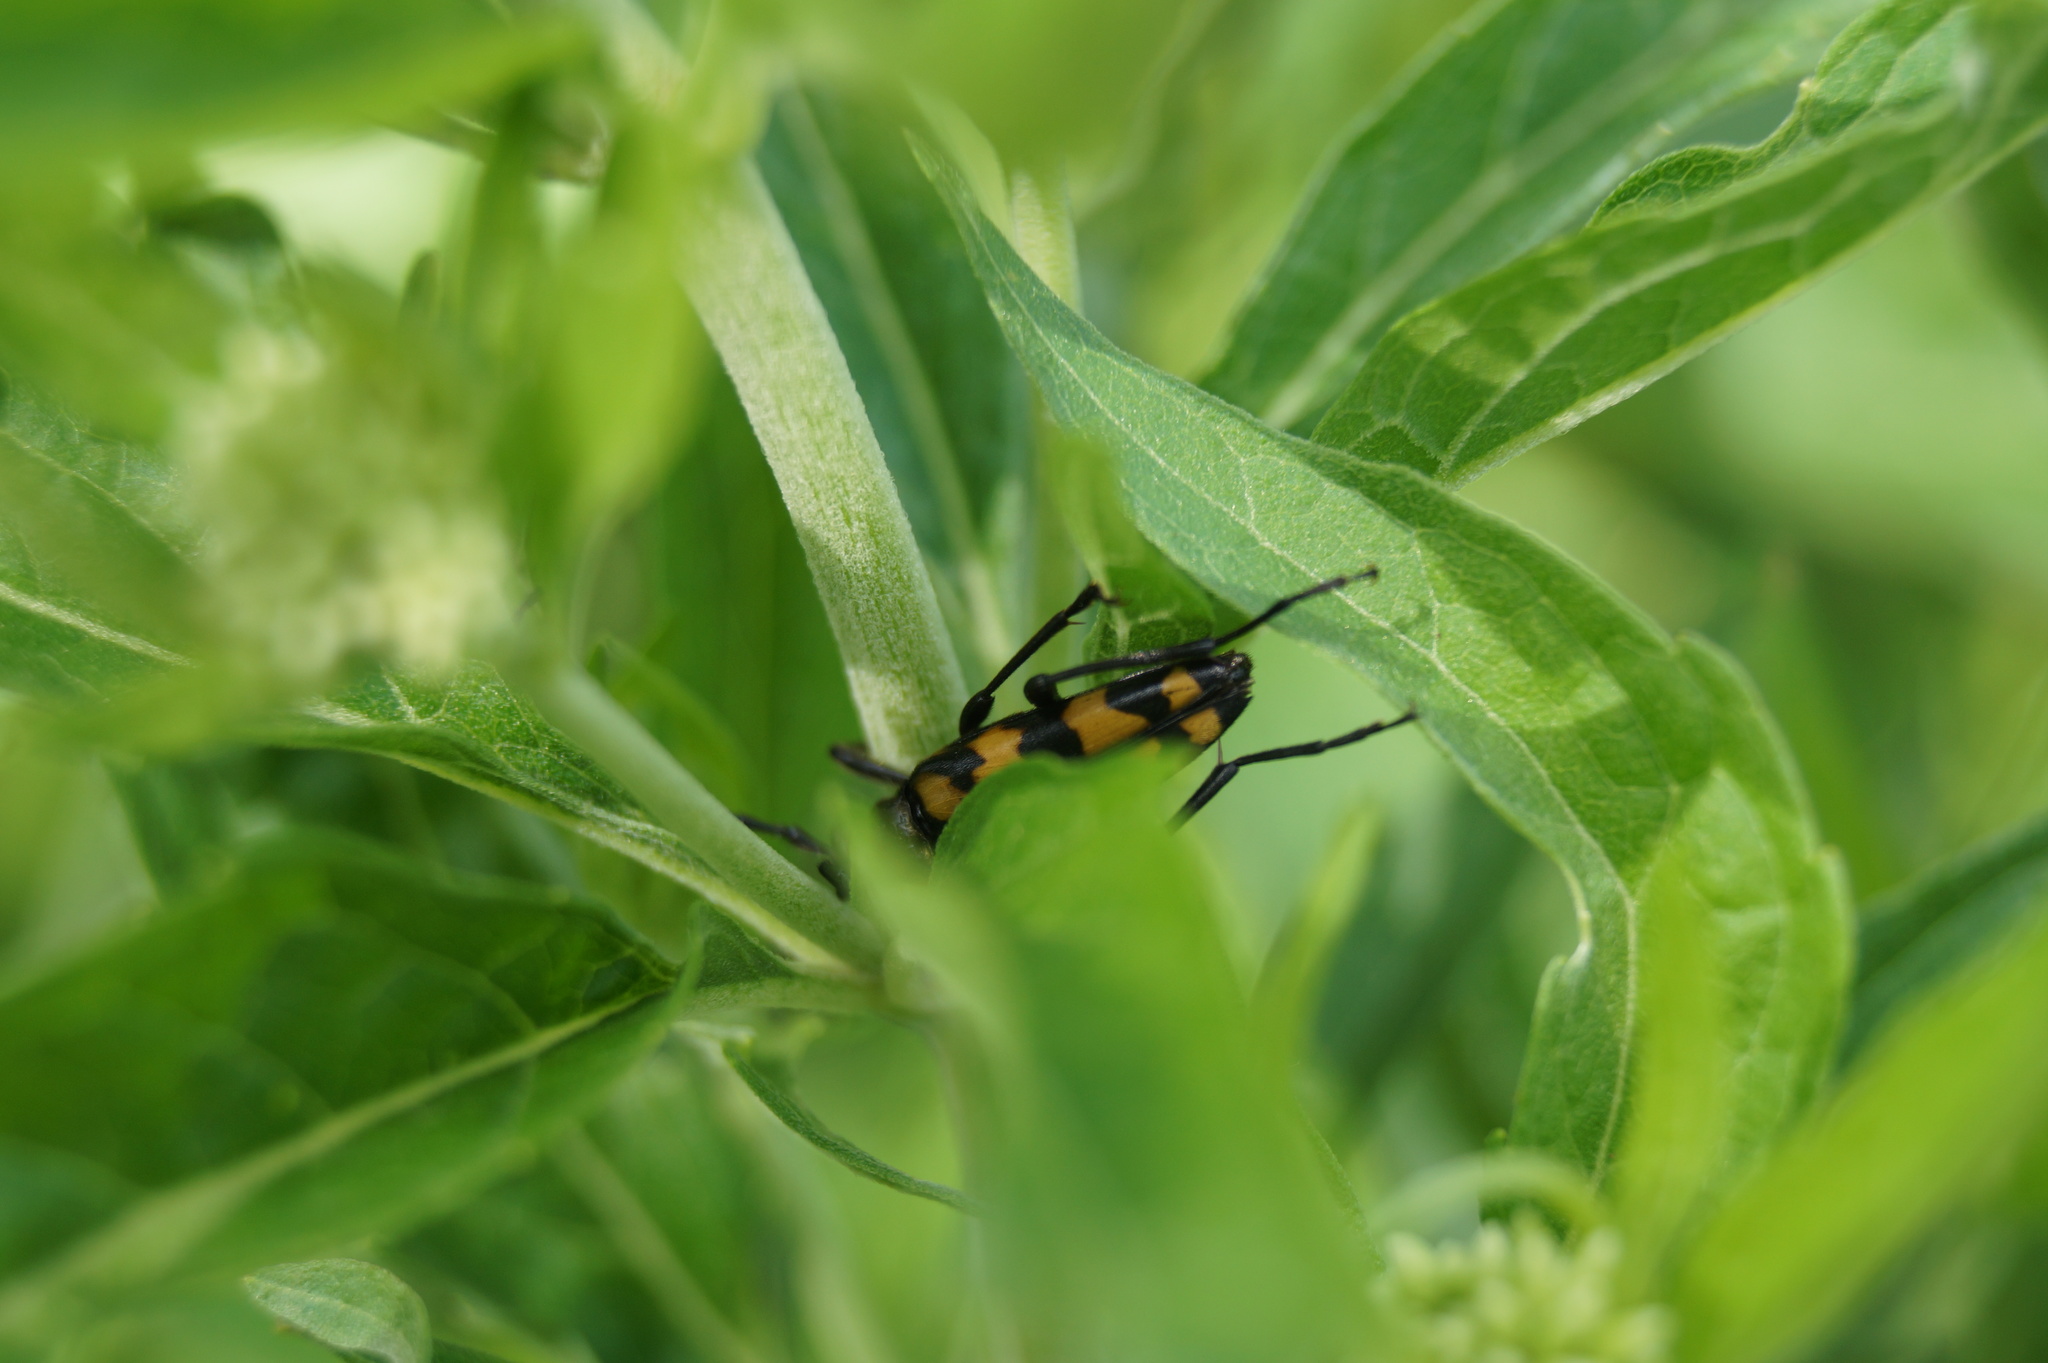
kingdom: Animalia
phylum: Arthropoda
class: Insecta
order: Coleoptera
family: Cerambycidae
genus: Leptura
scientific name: Leptura quadrifasciata
